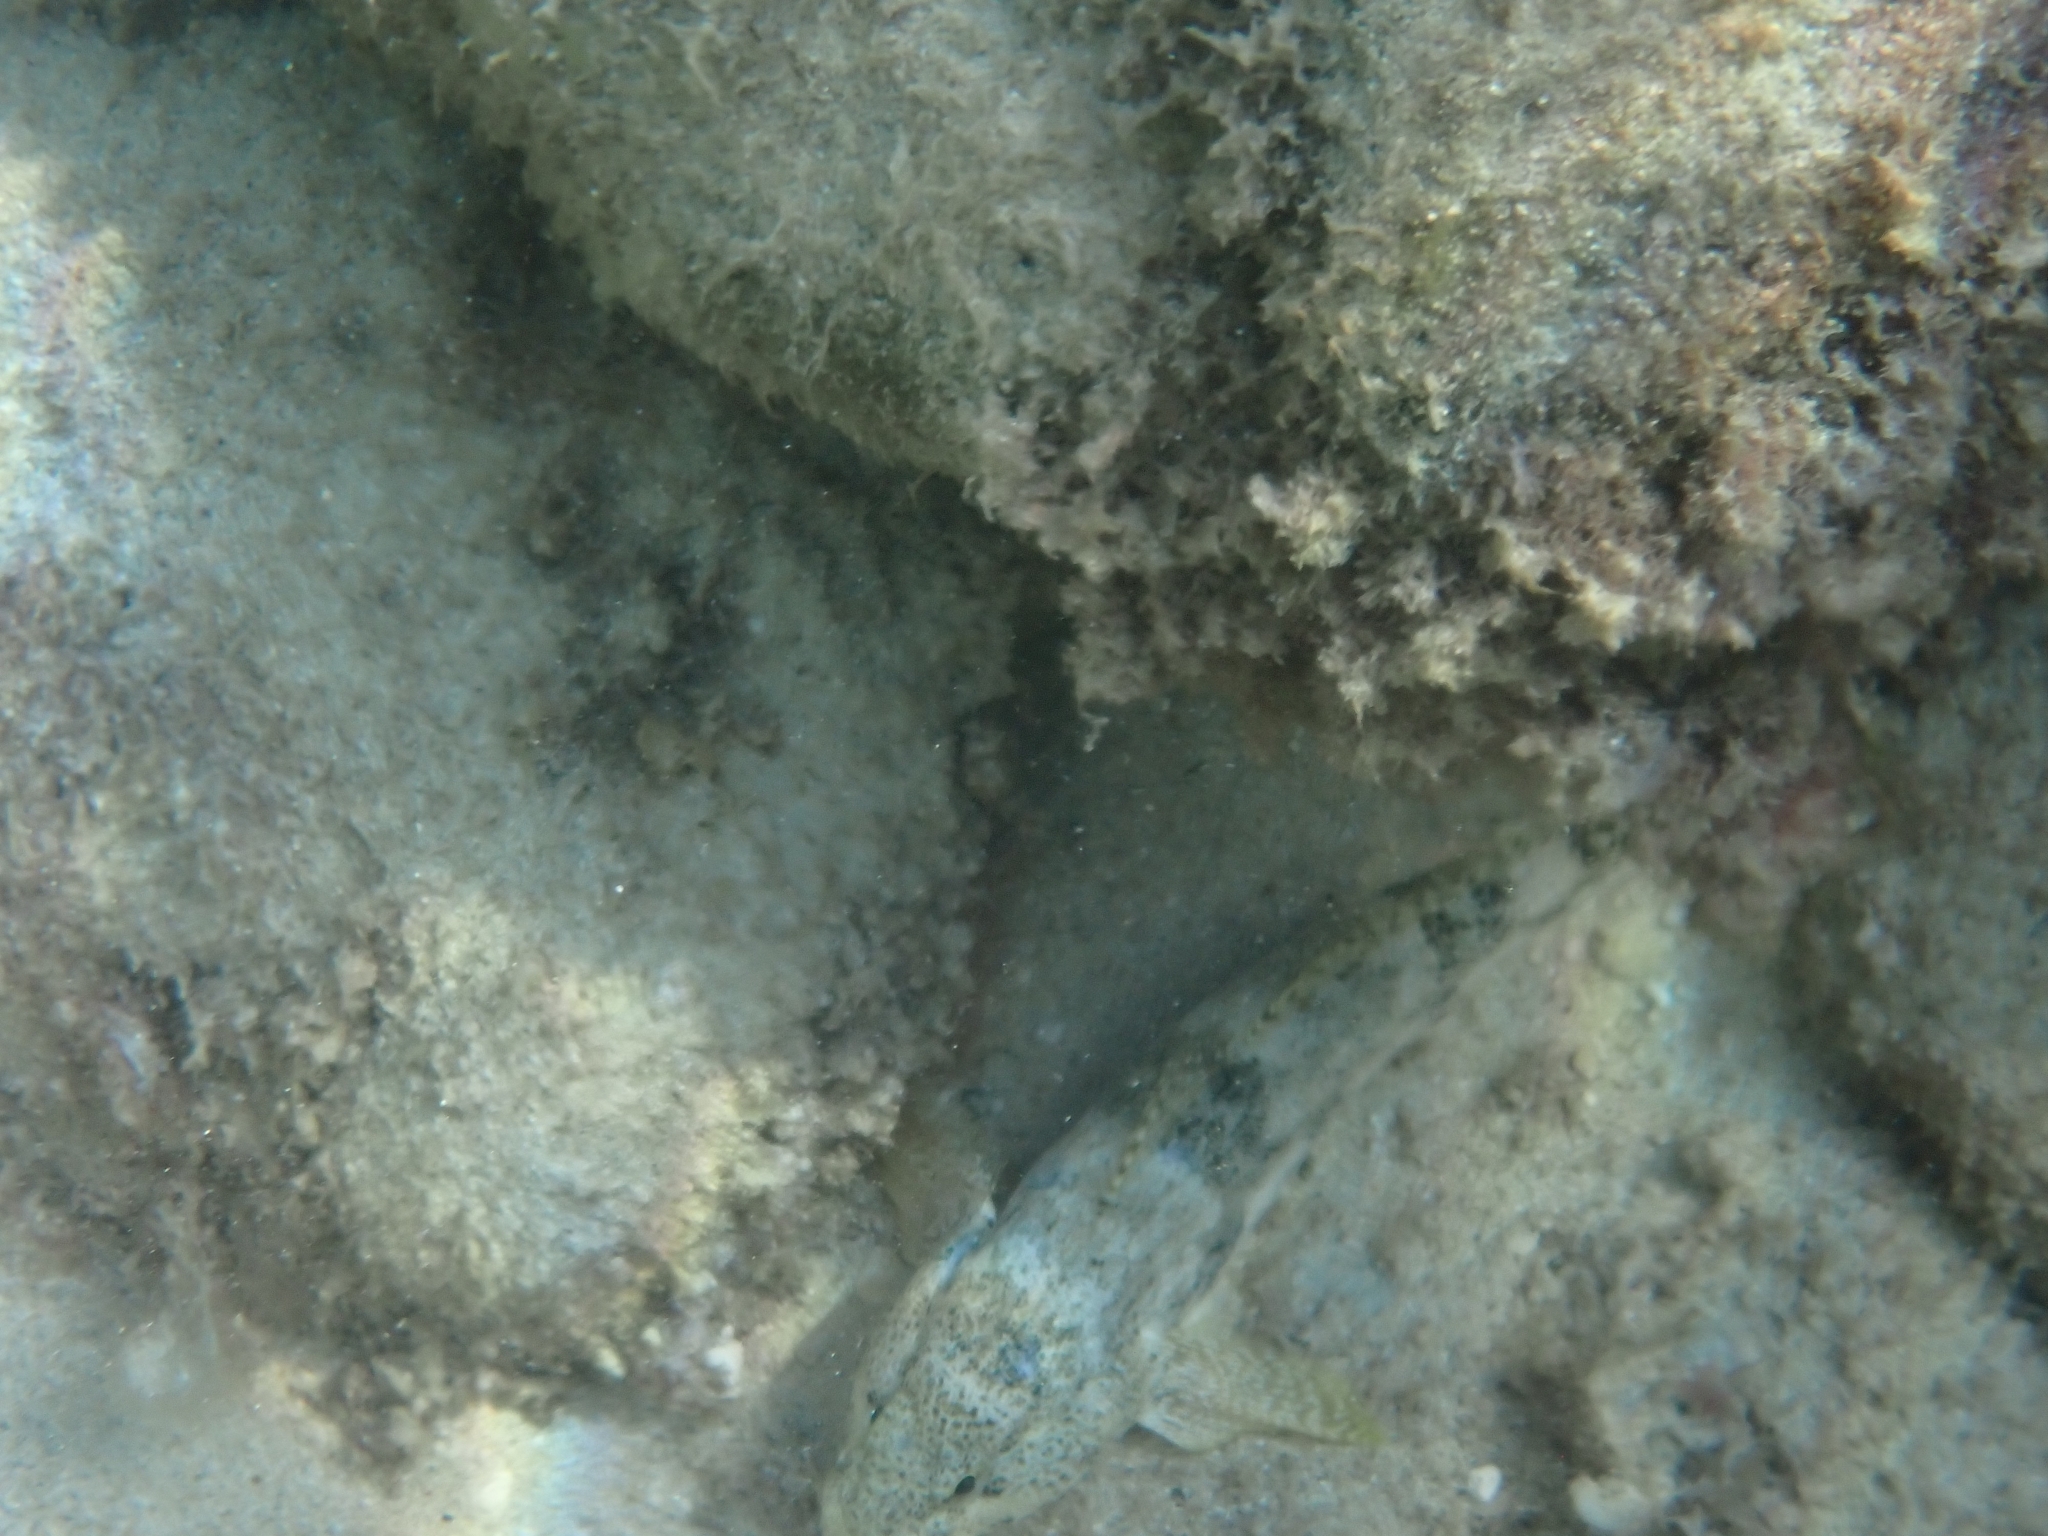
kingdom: Animalia
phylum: Chordata
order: Perciformes
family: Gobiidae
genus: Gobius
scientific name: Gobius cobitis
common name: Giant goby
